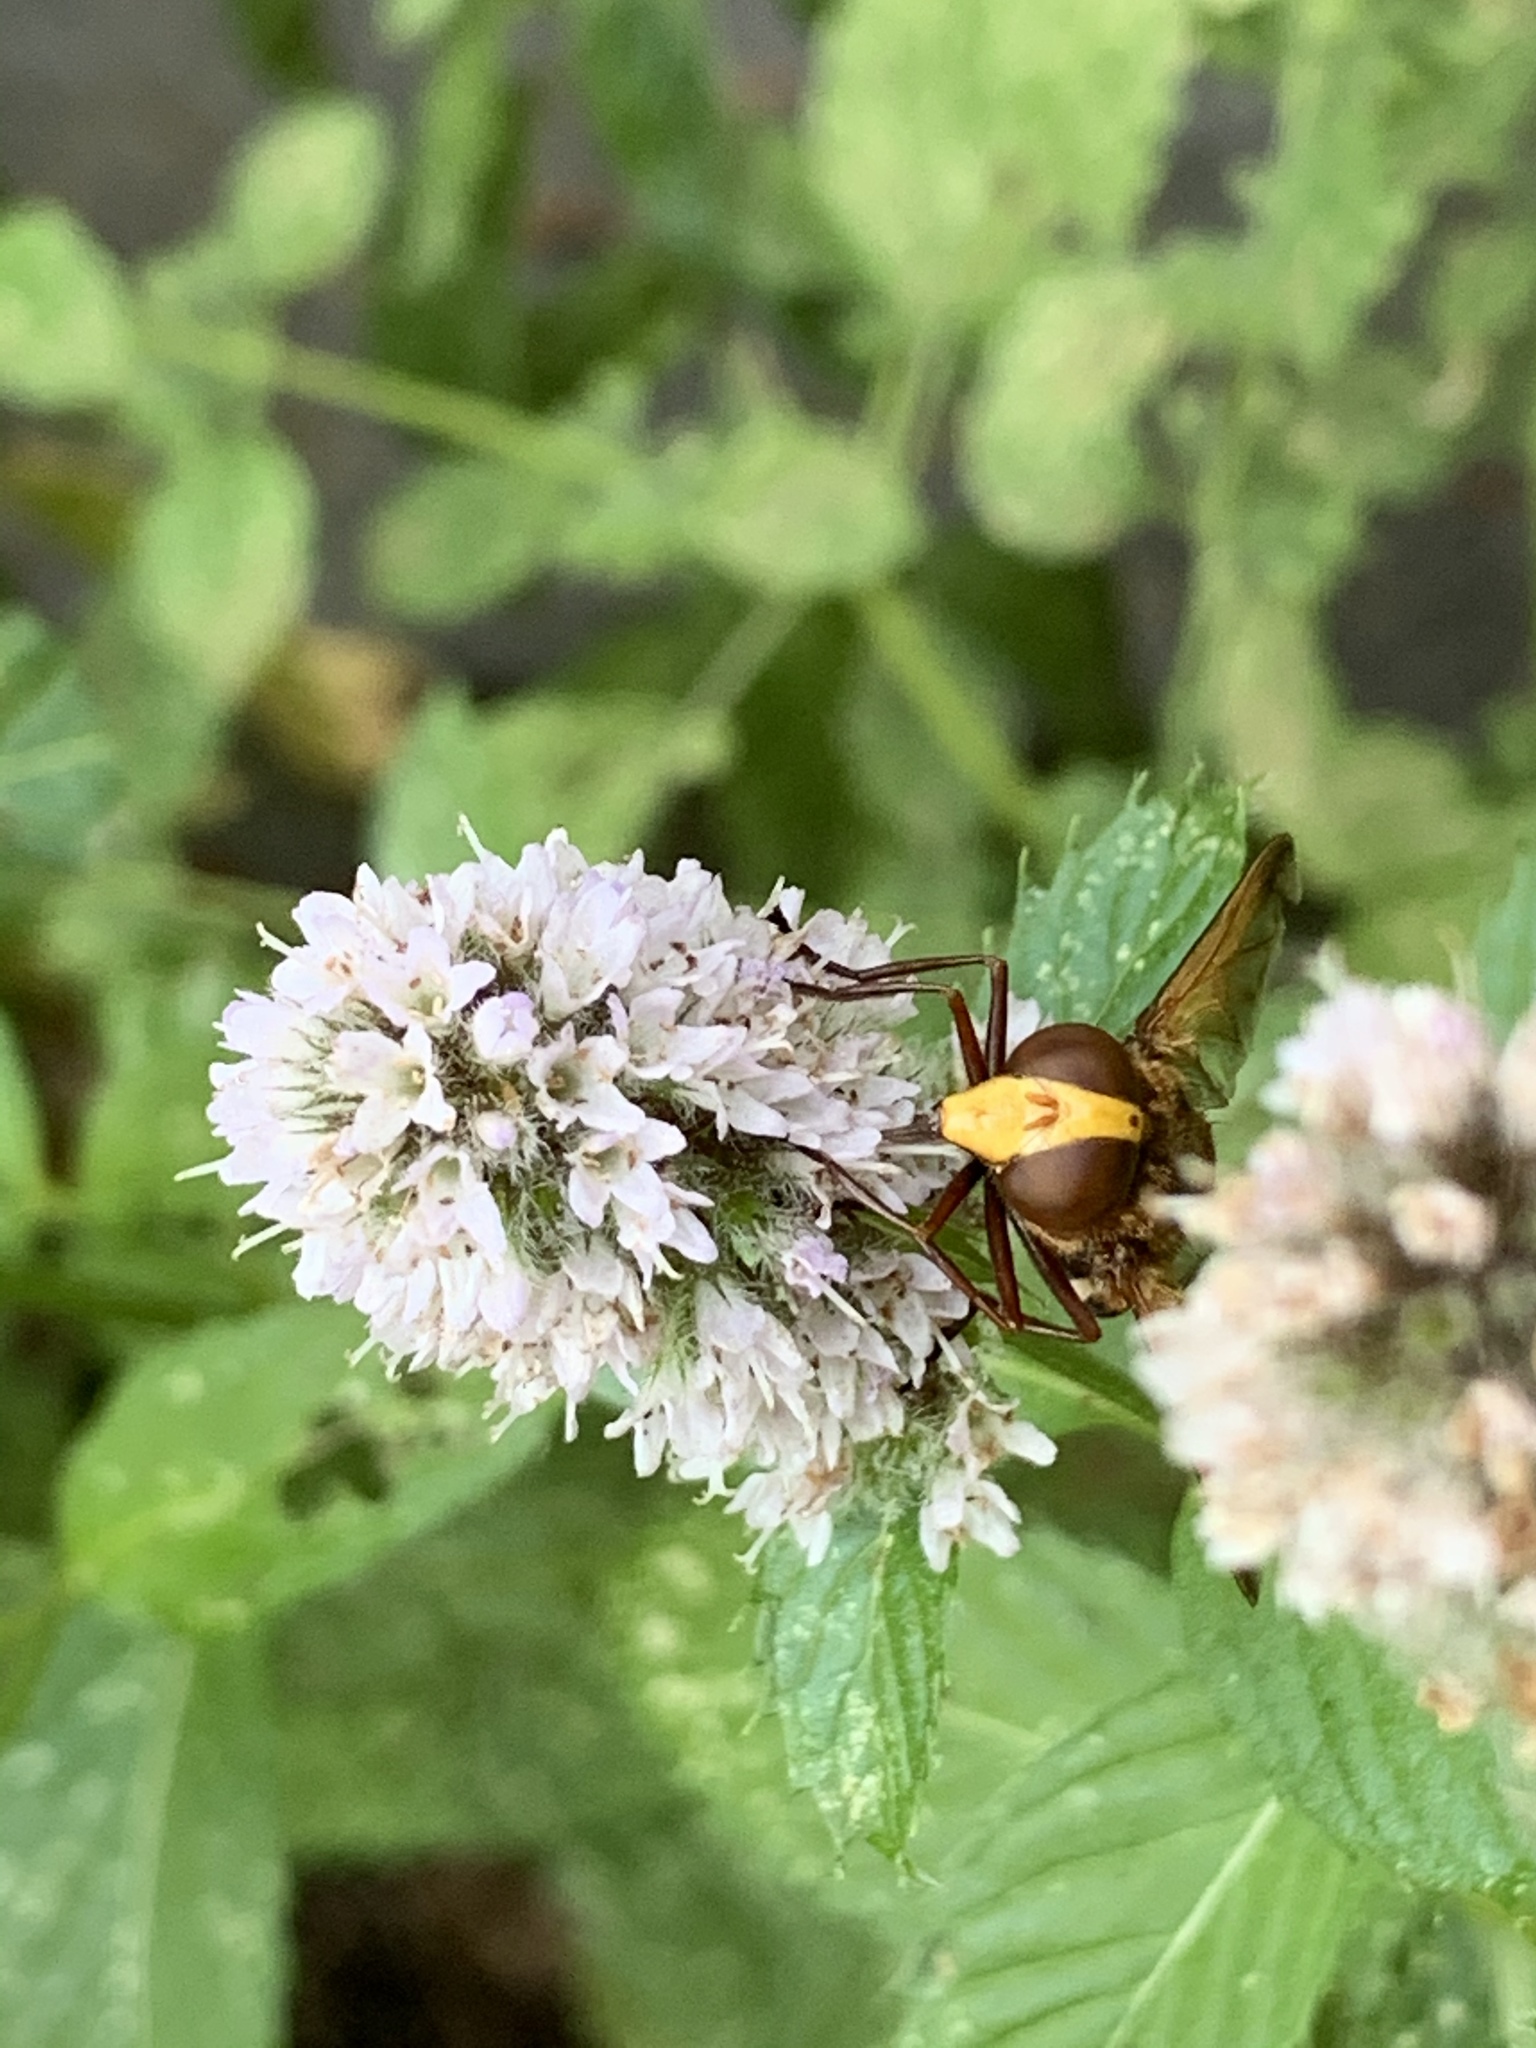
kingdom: Animalia
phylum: Arthropoda
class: Insecta
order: Diptera
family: Syrphidae
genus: Volucella
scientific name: Volucella zonaria
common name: Hornet hoverfly
